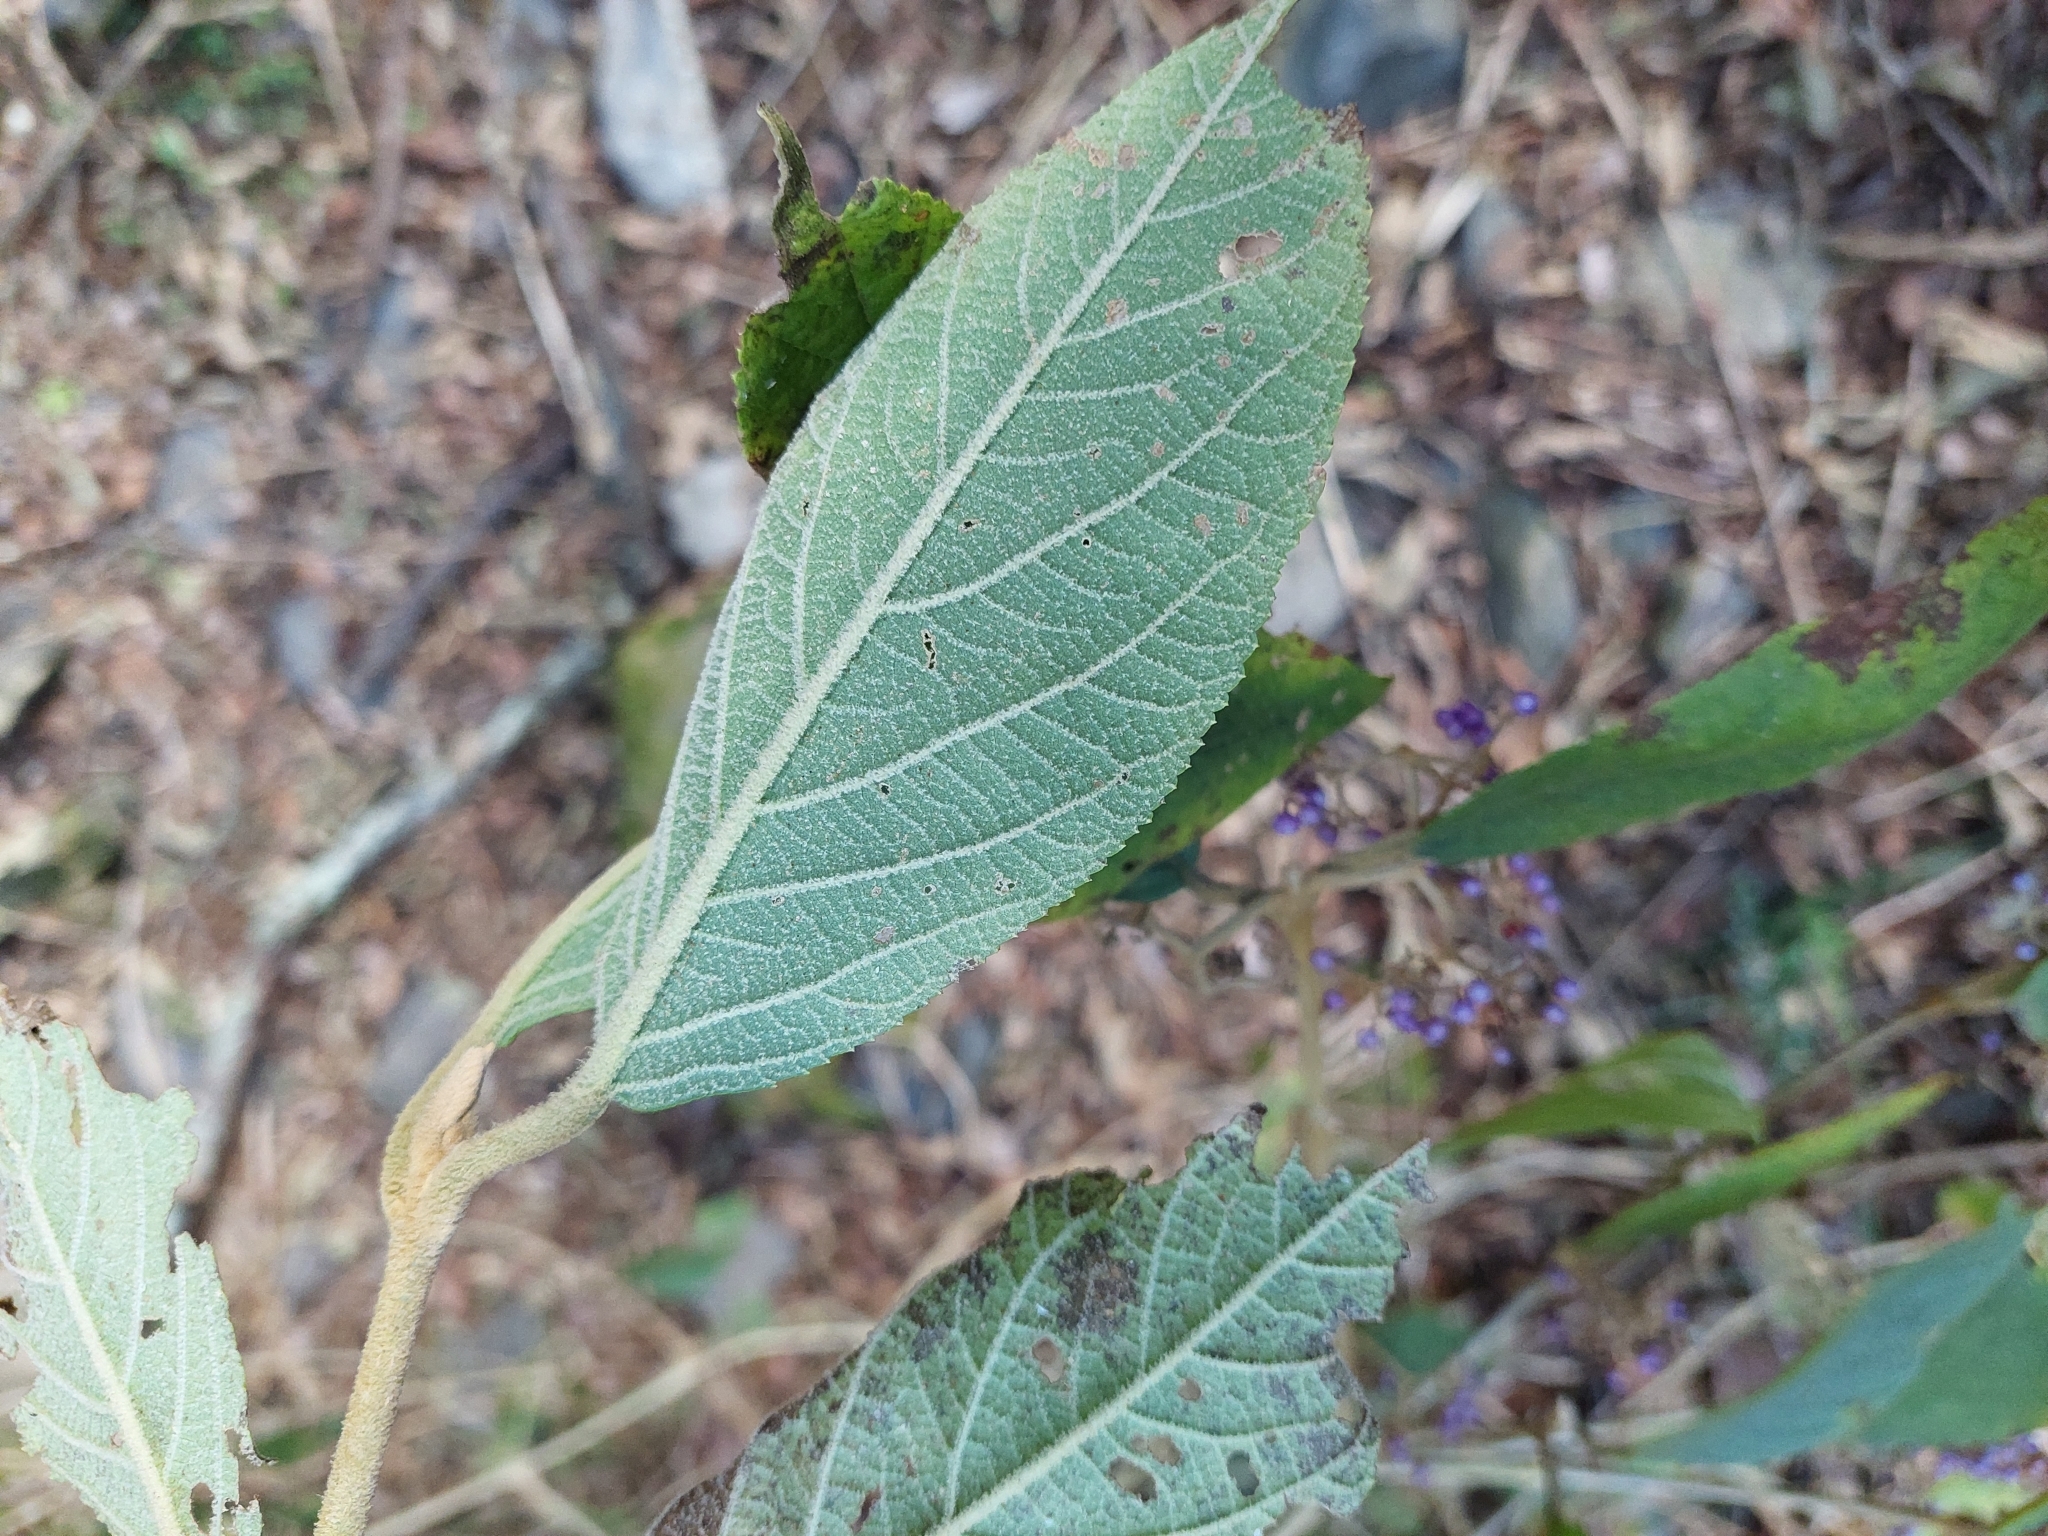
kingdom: Plantae
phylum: Tracheophyta
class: Magnoliopsida
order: Lamiales
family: Lamiaceae
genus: Callicarpa
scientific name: Callicarpa pedunculata
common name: Velvetleaf
